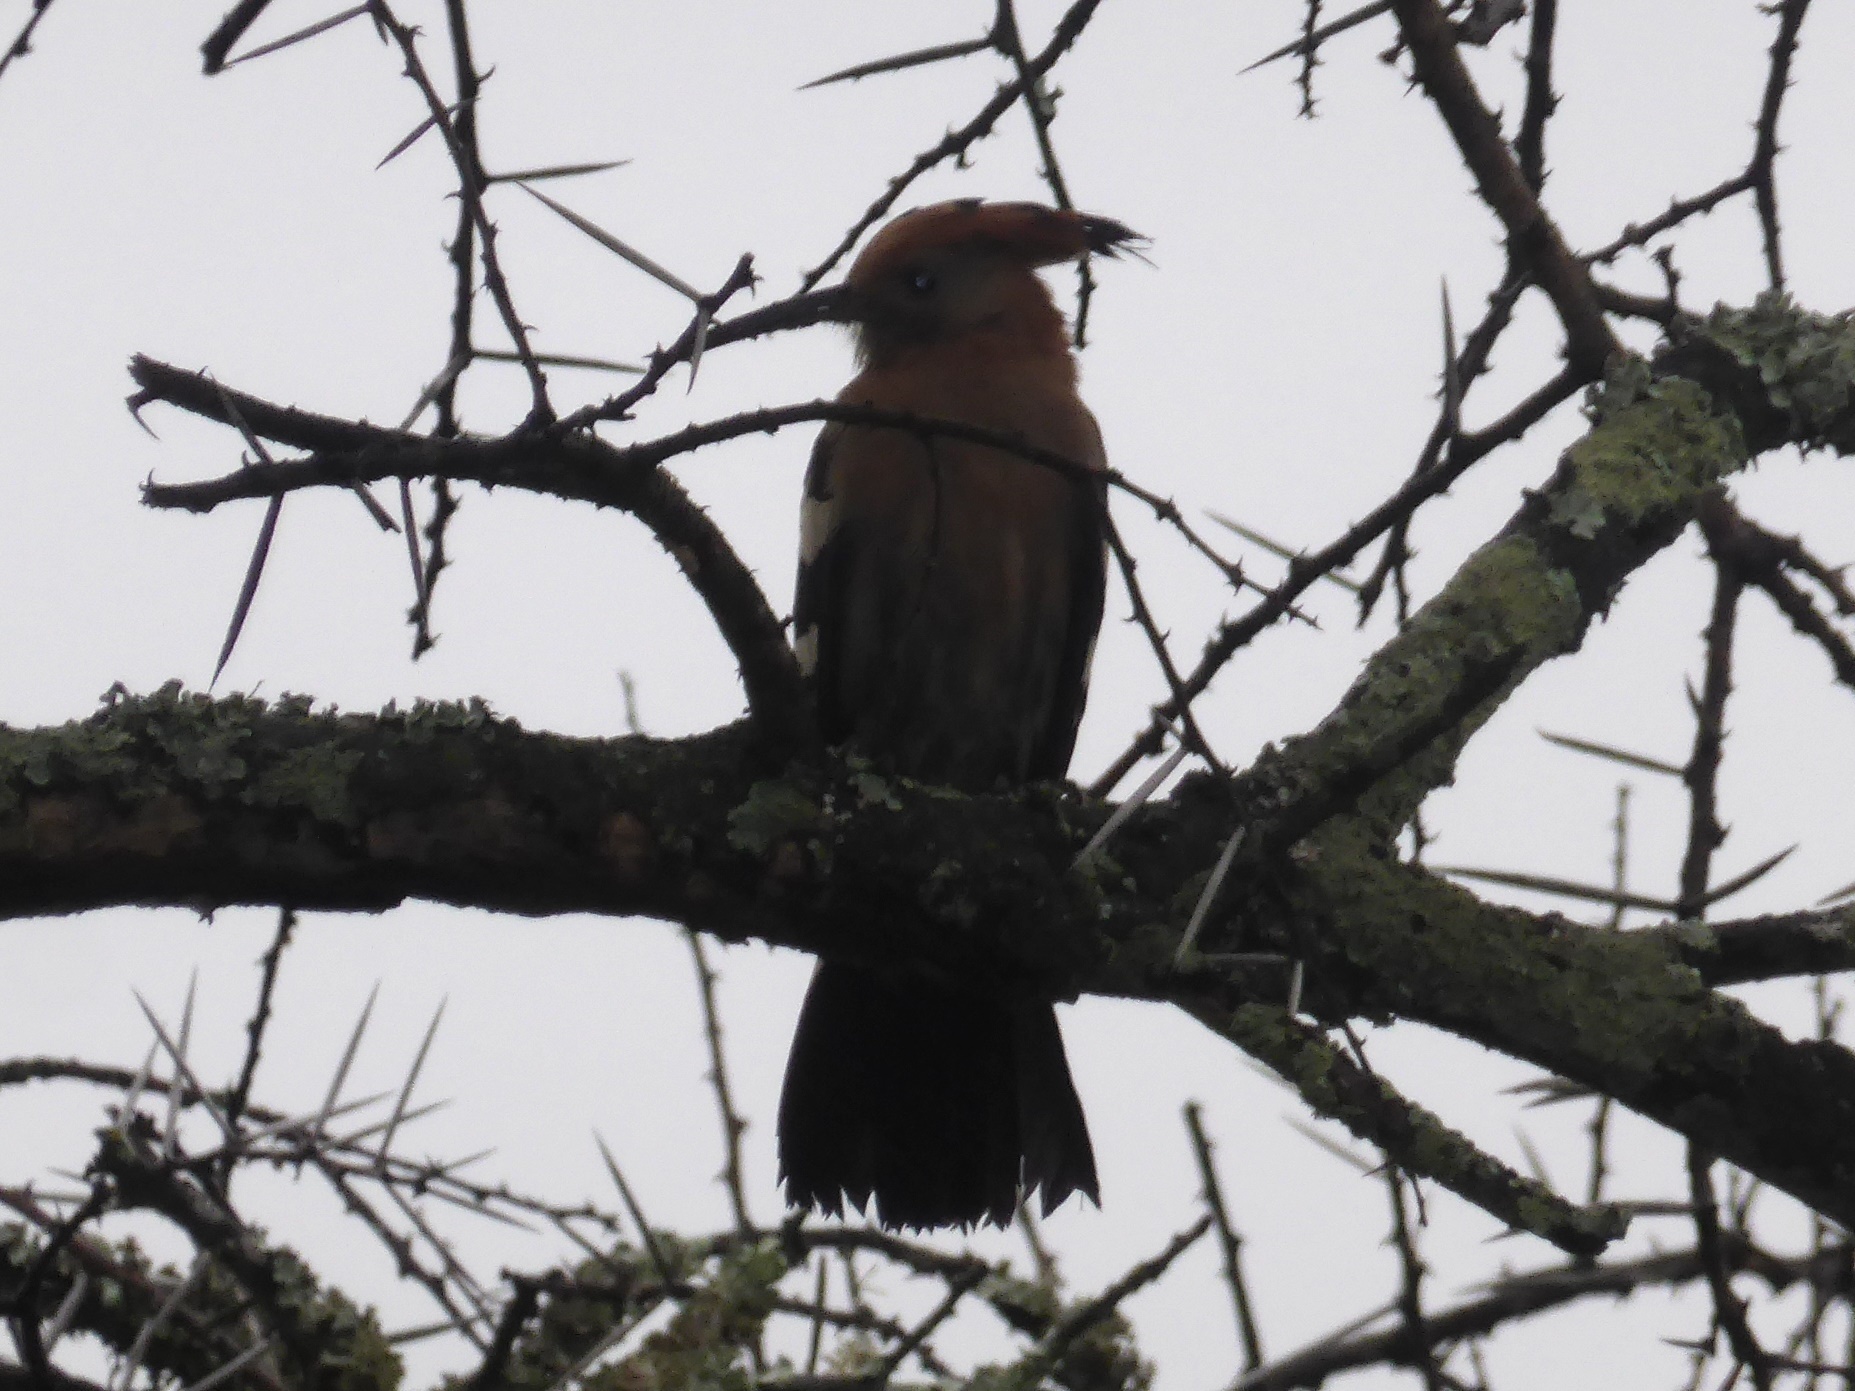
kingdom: Animalia
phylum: Chordata
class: Aves
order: Bucerotiformes
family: Upupidae
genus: Upupa
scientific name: Upupa africana
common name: African hoopoe
